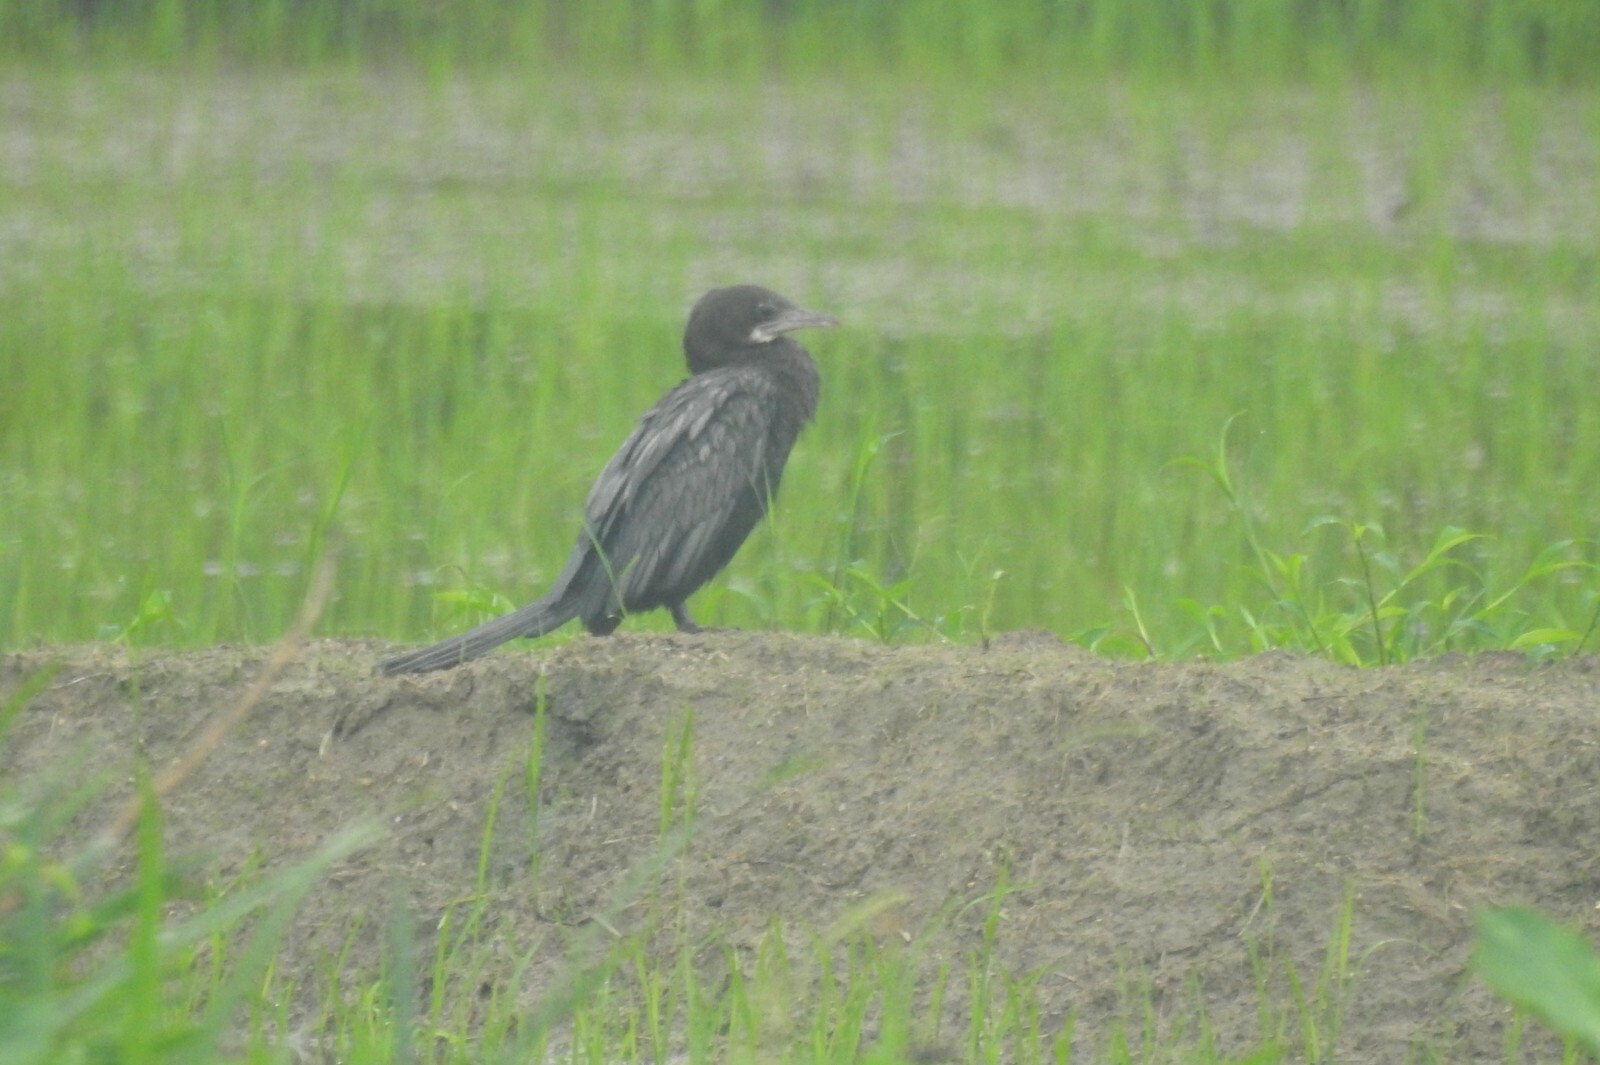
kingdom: Animalia
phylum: Chordata
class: Aves
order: Suliformes
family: Phalacrocoracidae
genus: Microcarbo
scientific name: Microcarbo niger
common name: Little cormorant
